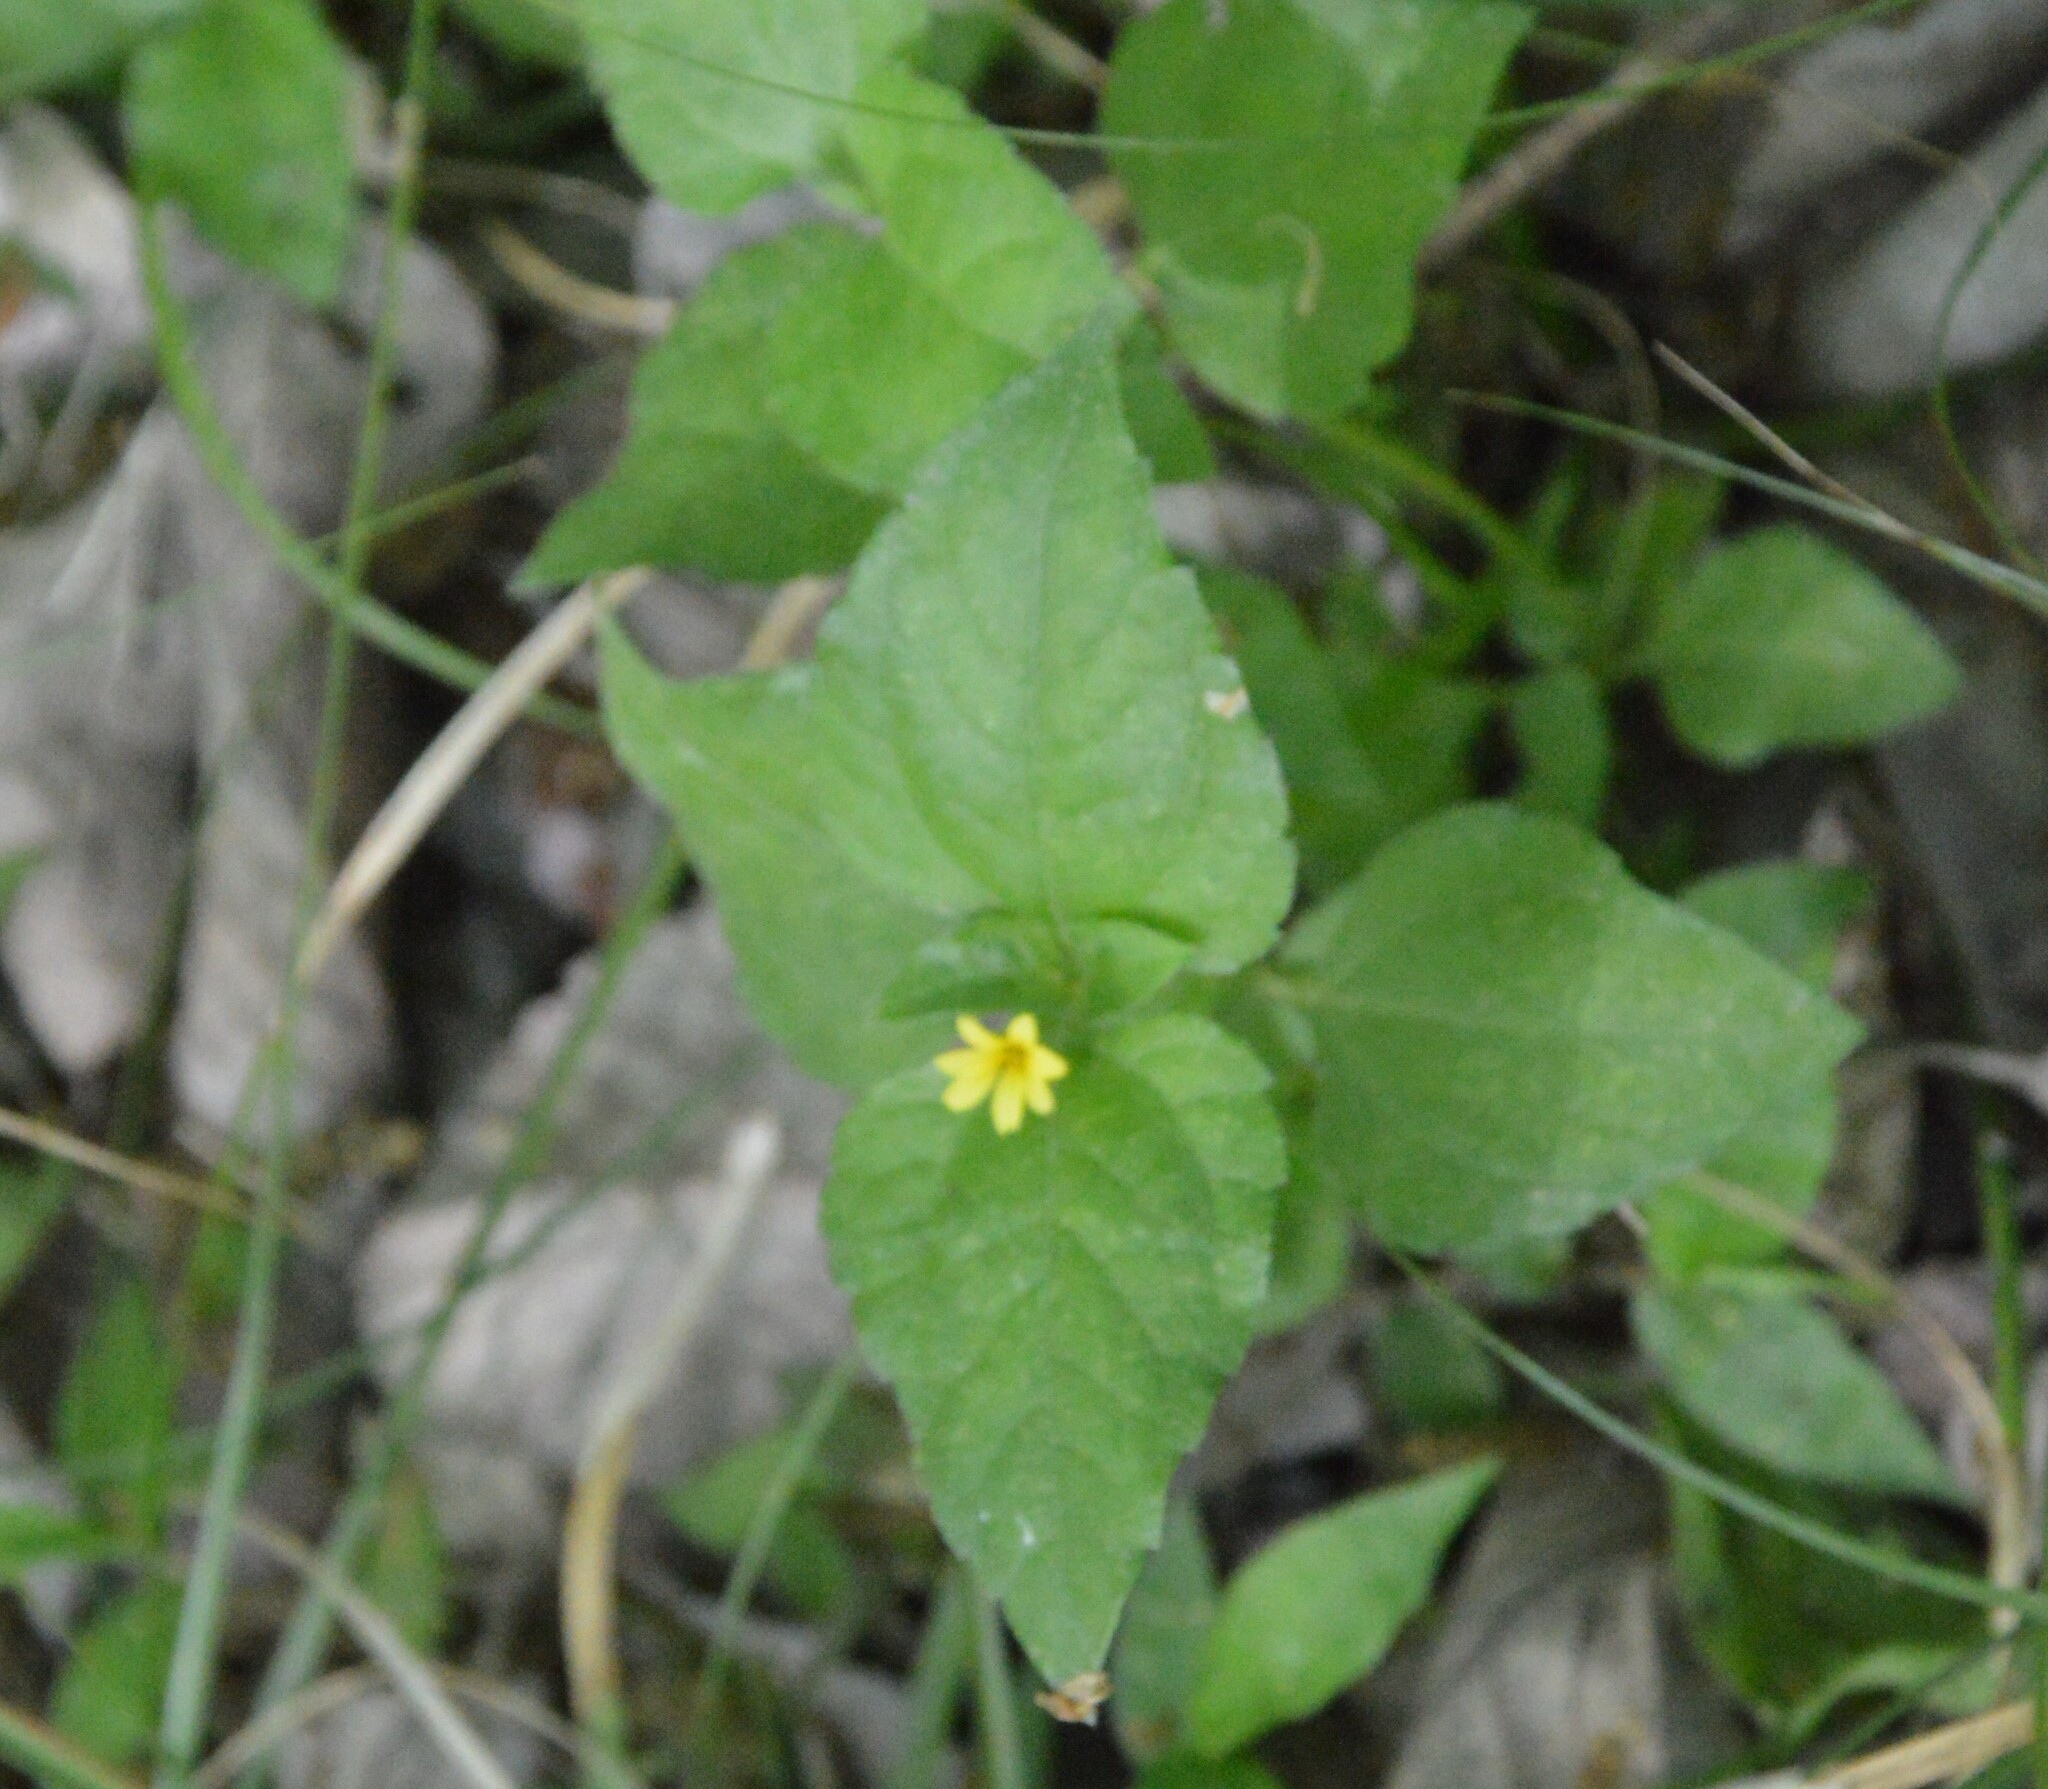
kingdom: Plantae
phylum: Tracheophyta
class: Magnoliopsida
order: Asterales
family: Asteraceae
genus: Calyptocarpus
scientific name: Calyptocarpus vialis
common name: Straggler daisy
